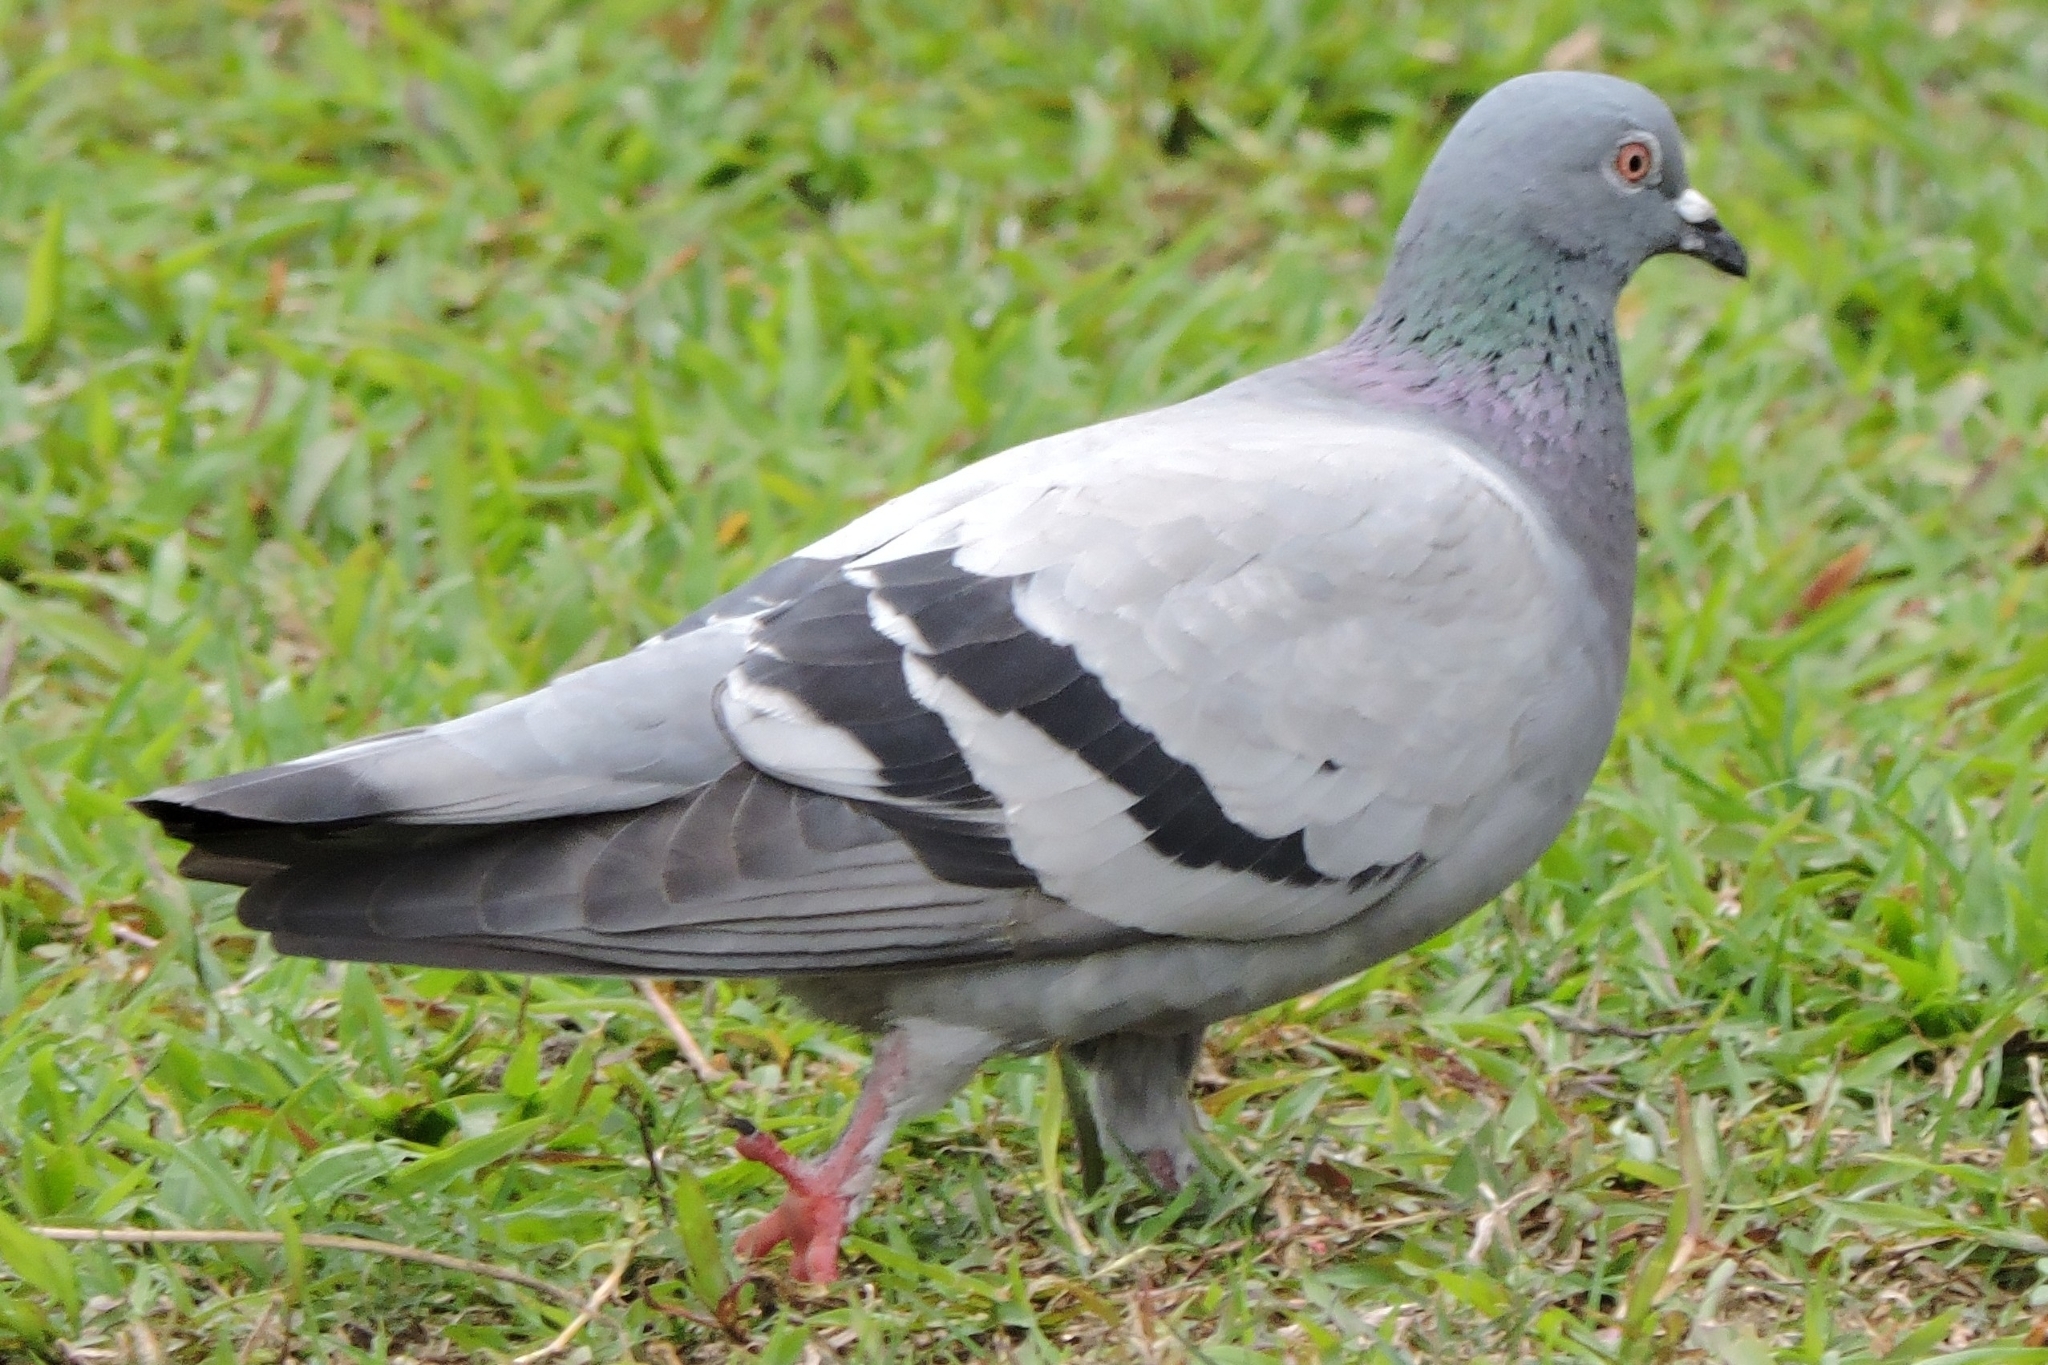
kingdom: Animalia
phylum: Chordata
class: Aves
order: Columbiformes
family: Columbidae
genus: Columba
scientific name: Columba livia
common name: Rock pigeon
